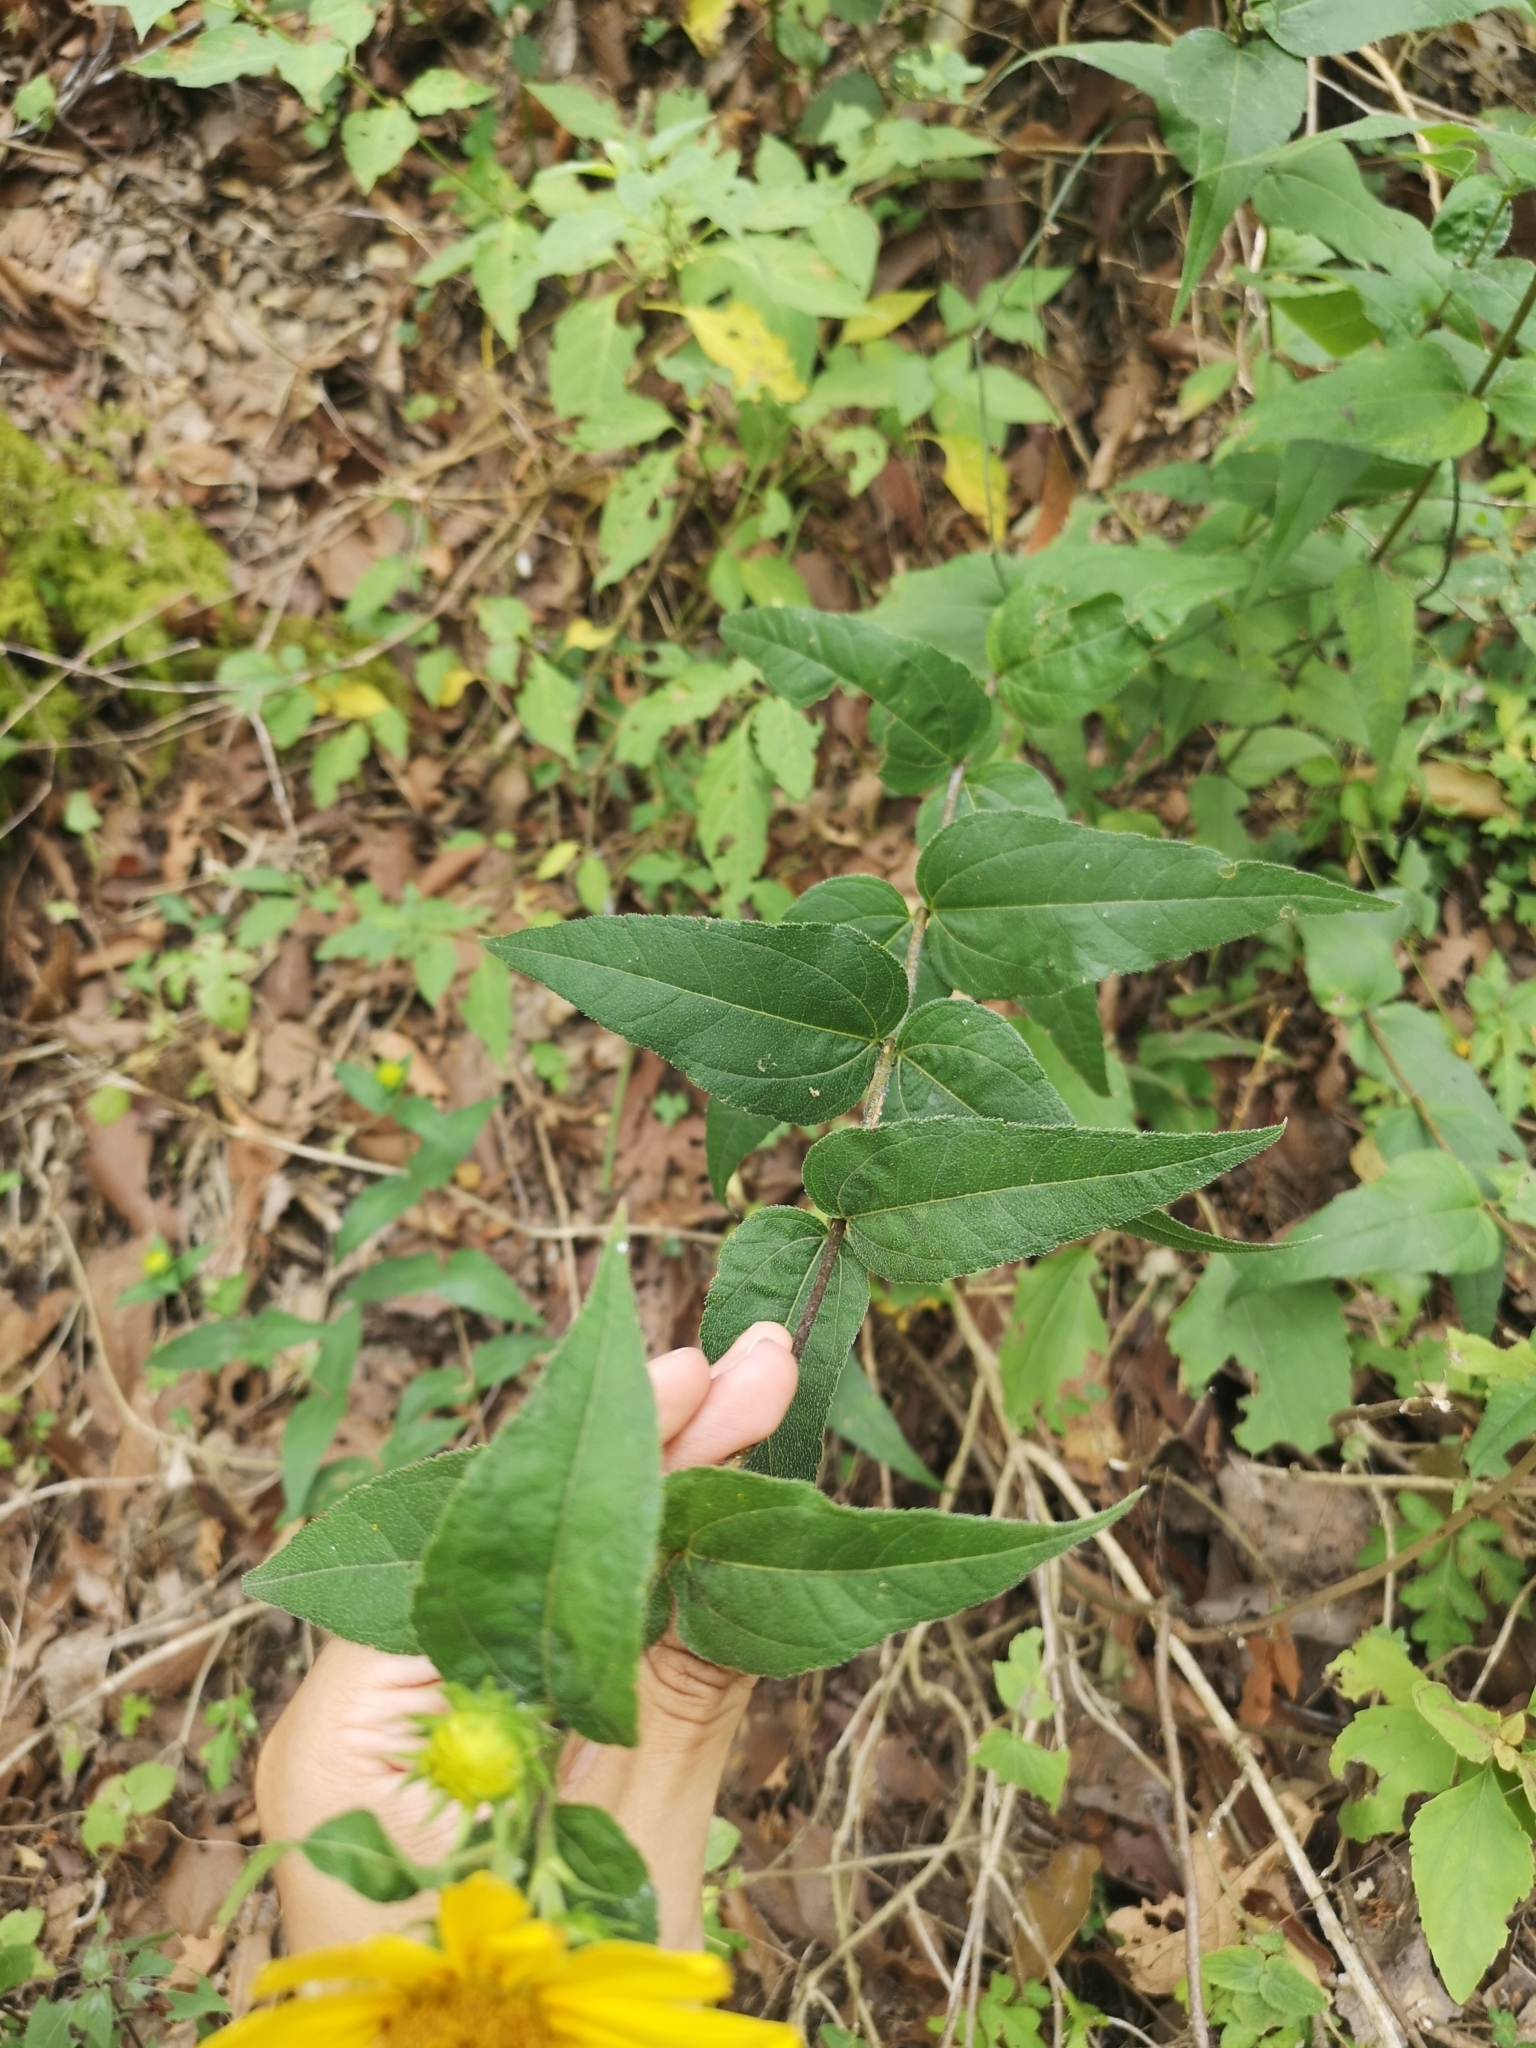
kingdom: Plantae
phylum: Tracheophyta
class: Magnoliopsida
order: Asterales
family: Asteraceae
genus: Helianthus
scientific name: Helianthus hirsutus
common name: Hairy sunflower
